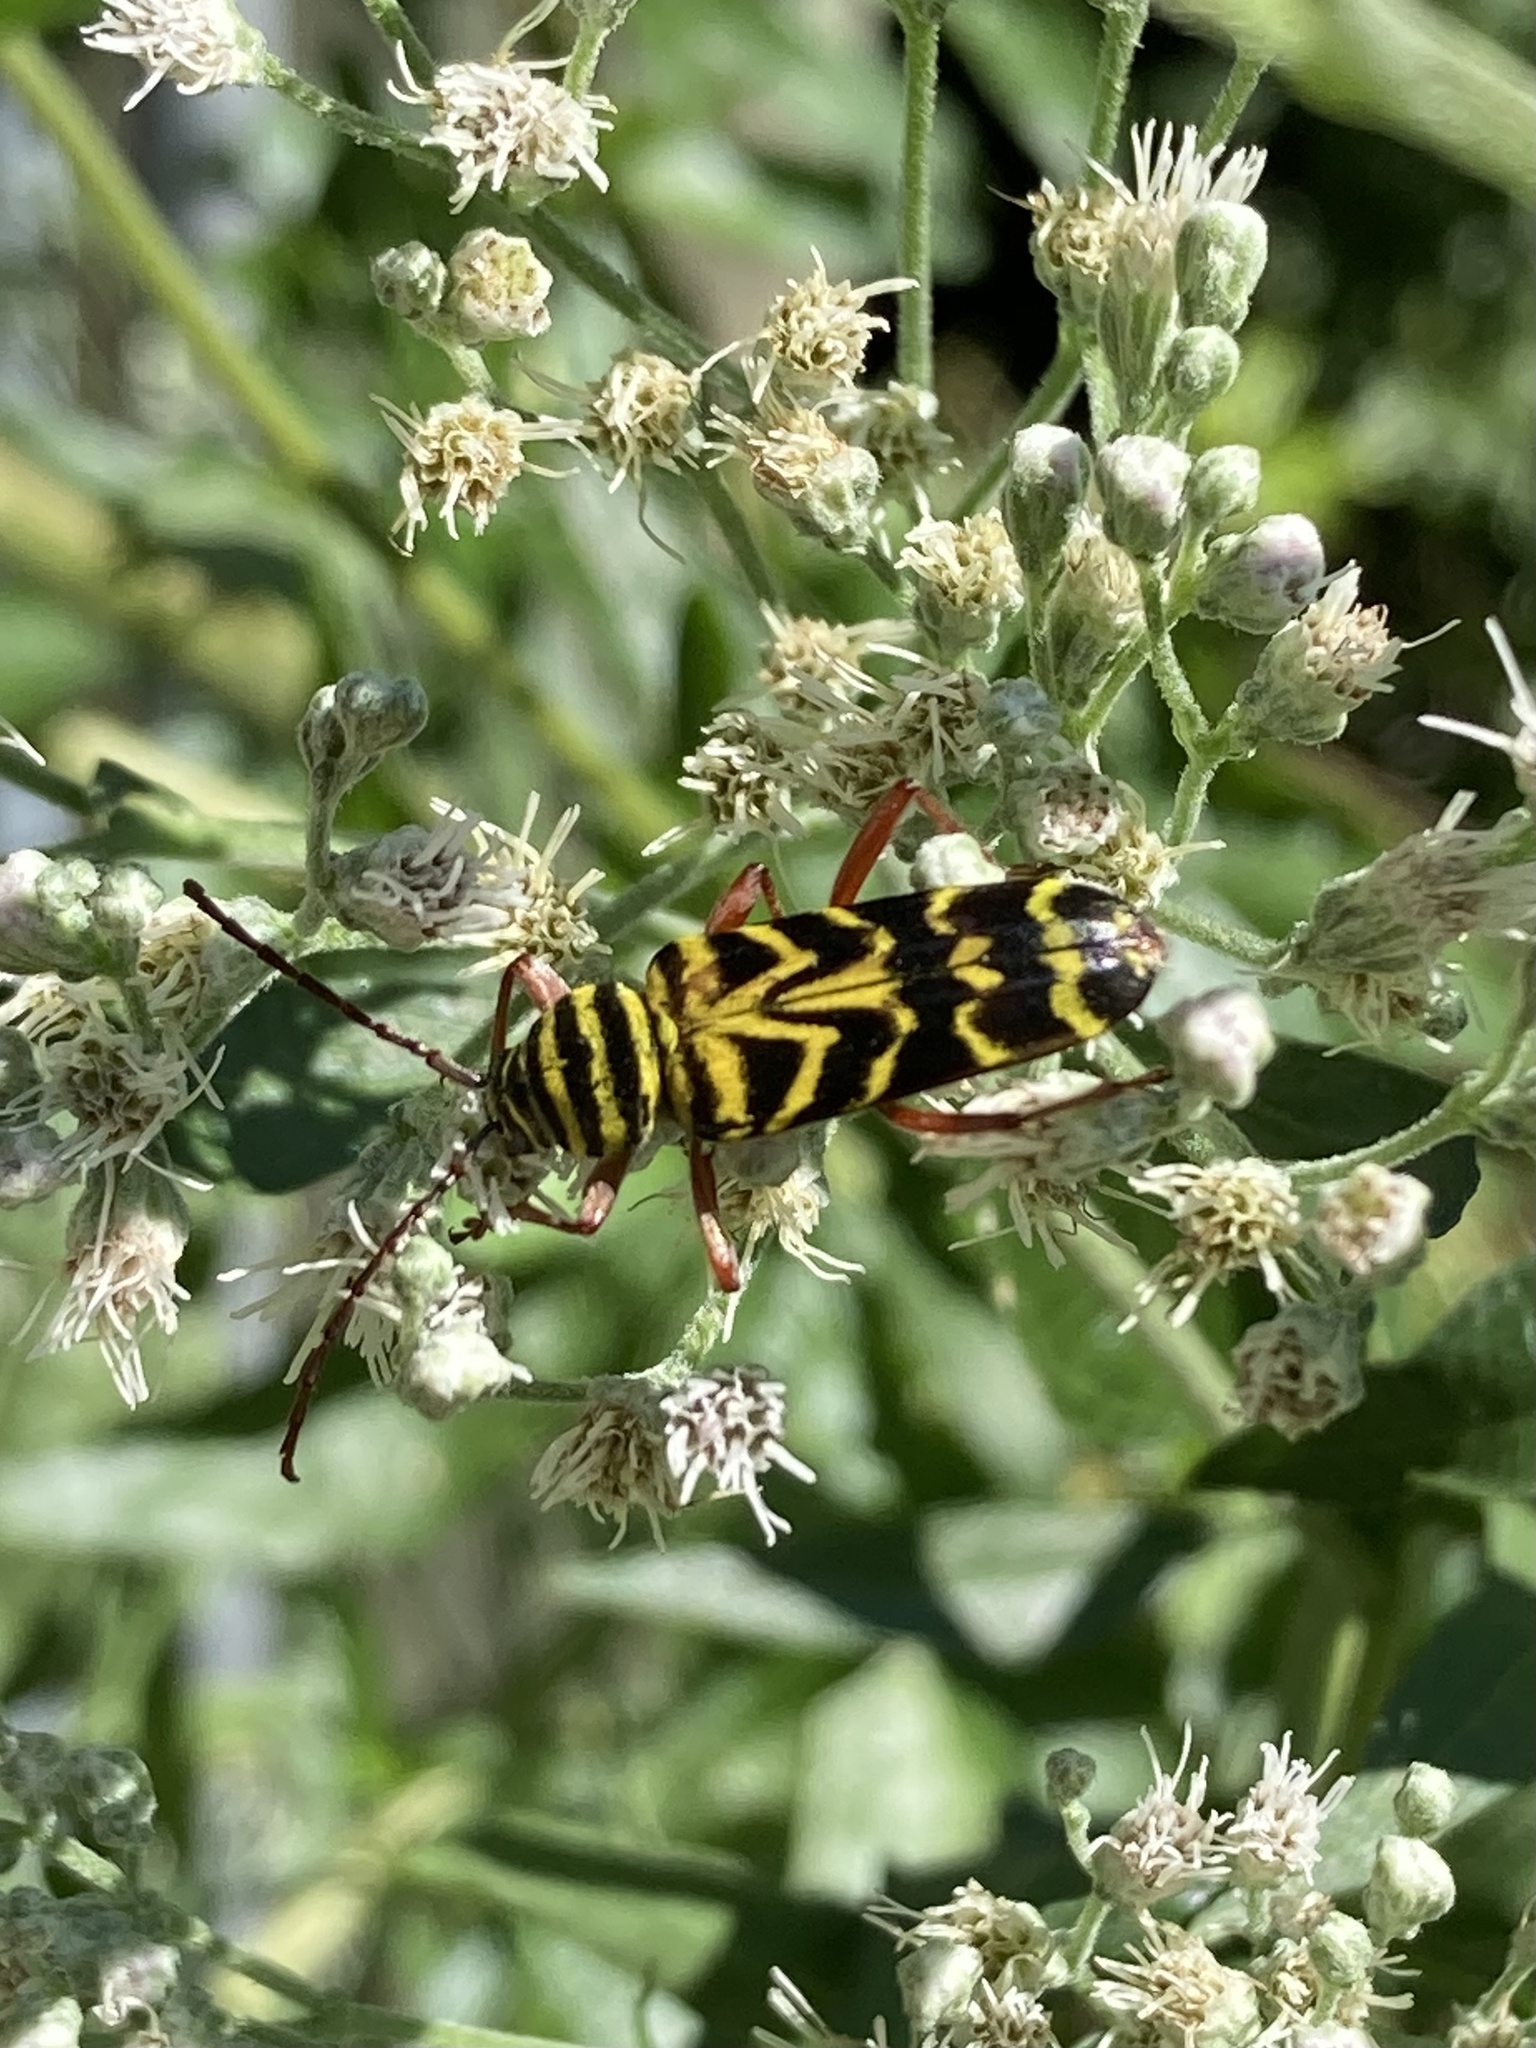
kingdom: Animalia
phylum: Arthropoda
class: Insecta
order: Coleoptera
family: Cerambycidae
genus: Megacyllene
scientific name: Megacyllene robiniae
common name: Locust borer
